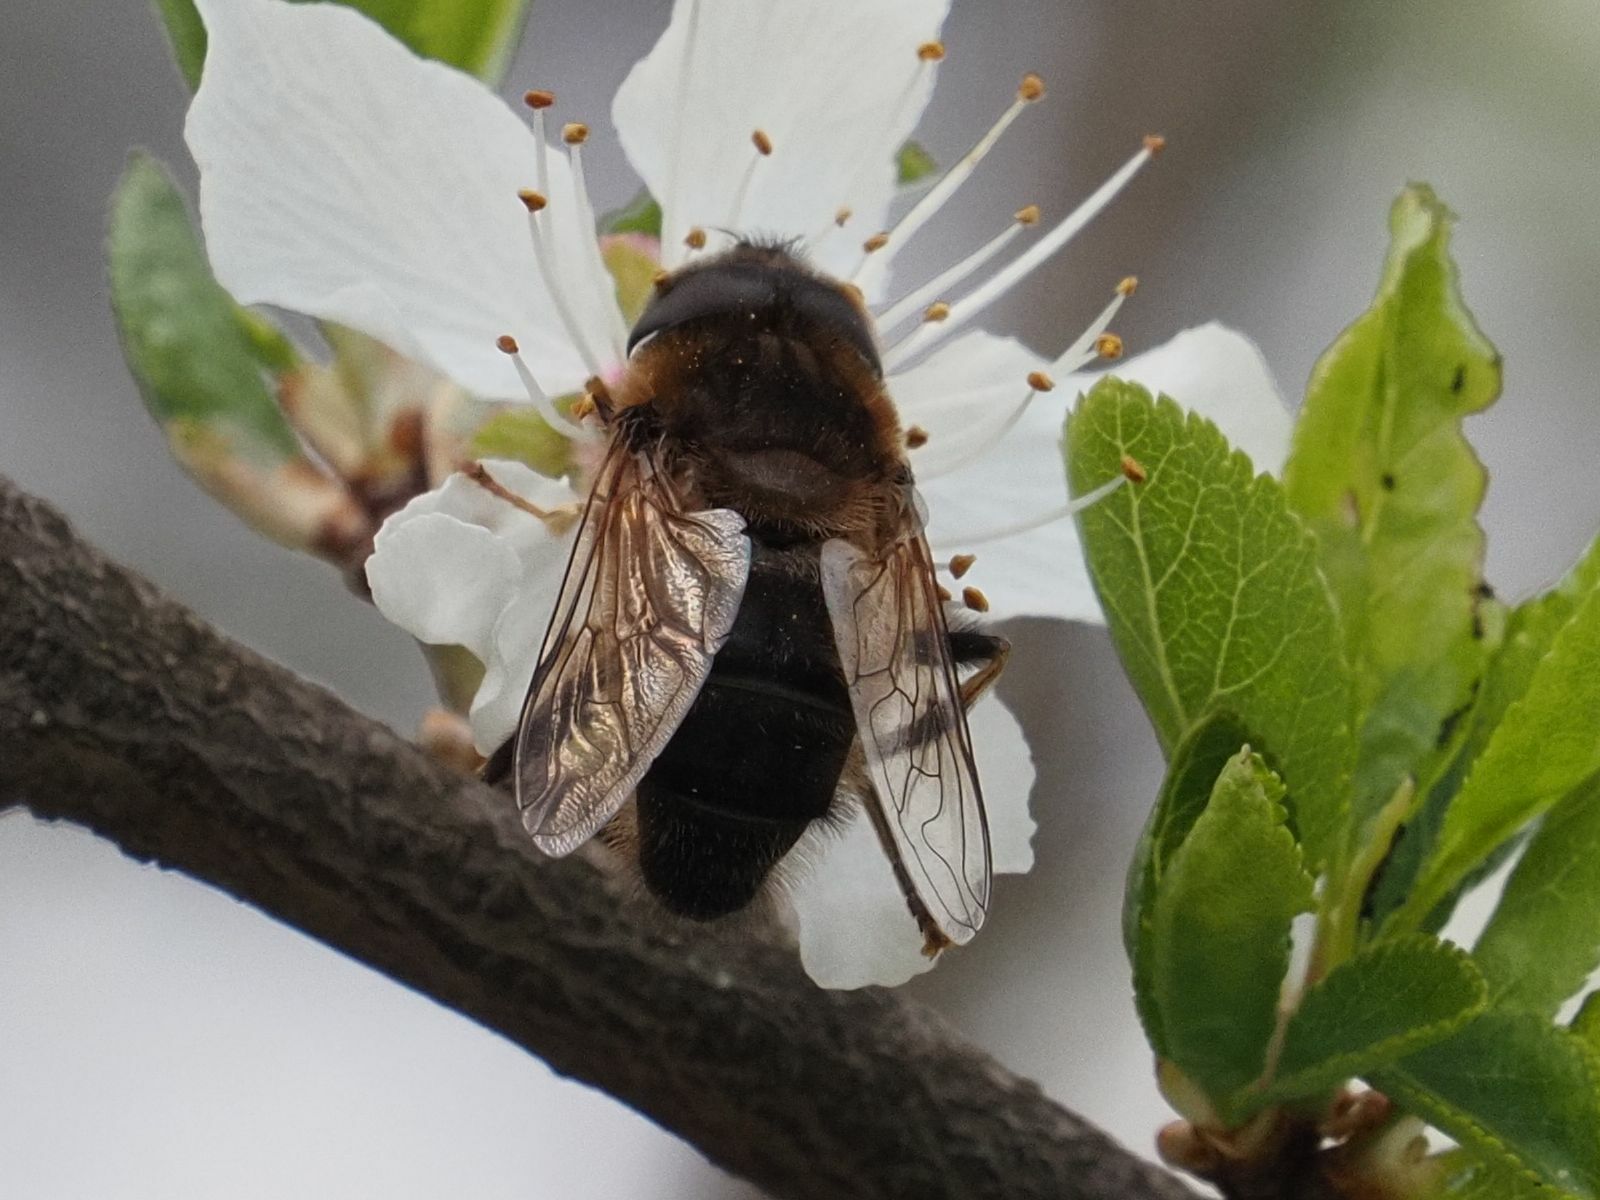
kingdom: Animalia
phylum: Arthropoda
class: Insecta
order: Diptera
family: Syrphidae
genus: Eristalis
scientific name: Eristalis pertinax
